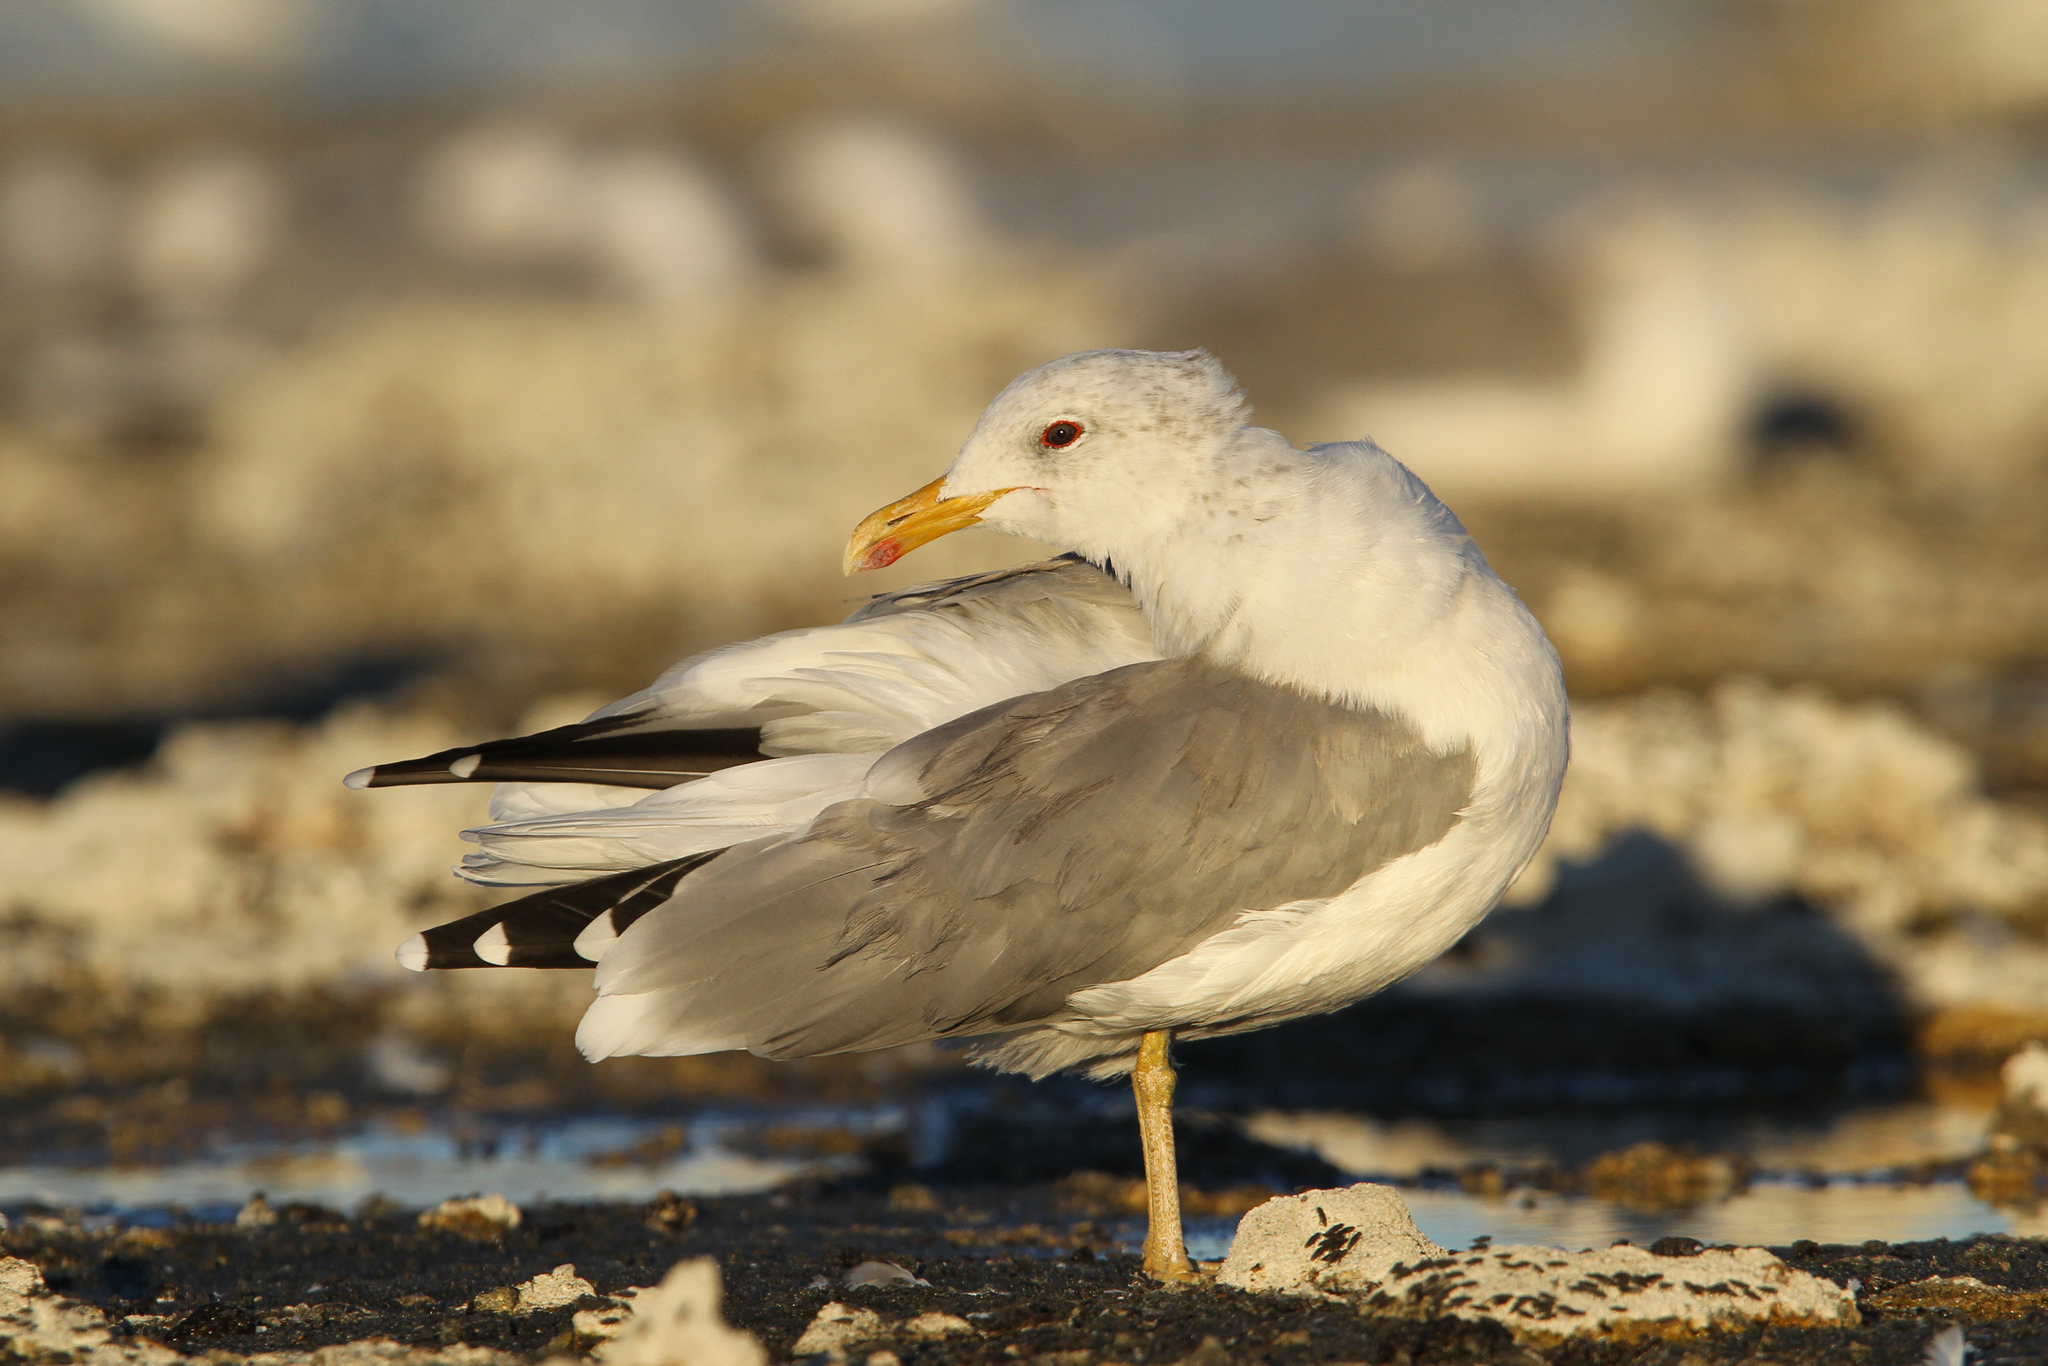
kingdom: Animalia
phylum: Chordata
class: Aves
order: Charadriiformes
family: Laridae
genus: Larus
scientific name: Larus californicus
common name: California gull
